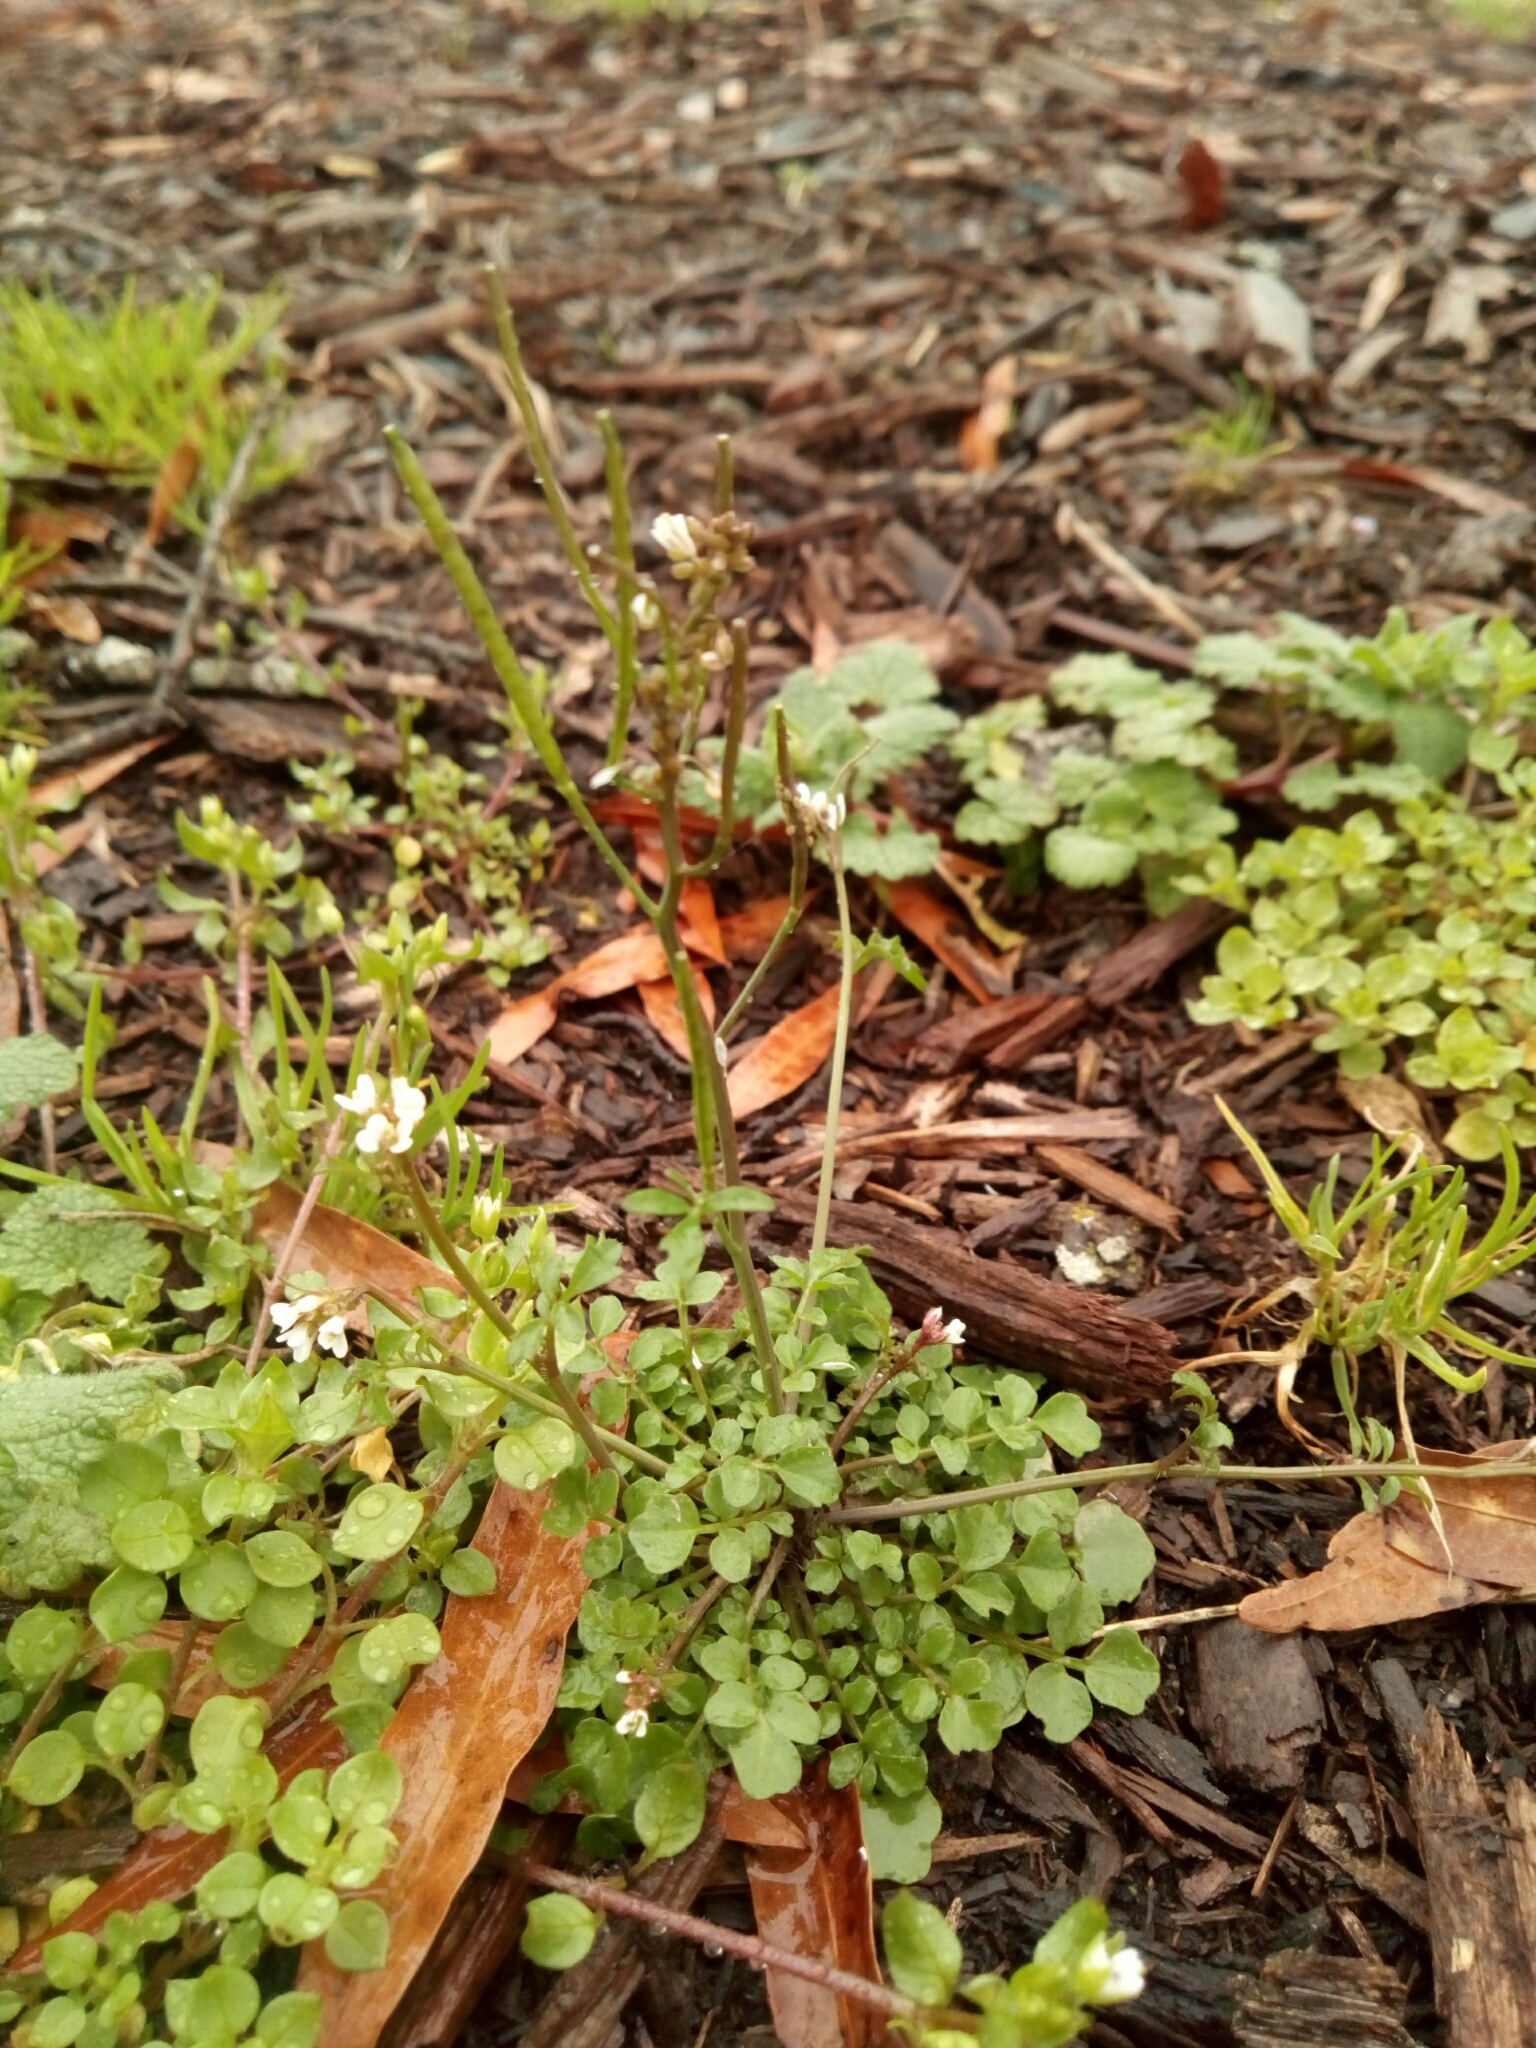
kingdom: Plantae
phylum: Tracheophyta
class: Magnoliopsida
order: Brassicales
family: Brassicaceae
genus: Cardamine
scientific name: Cardamine hirsuta
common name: Hairy bittercress
